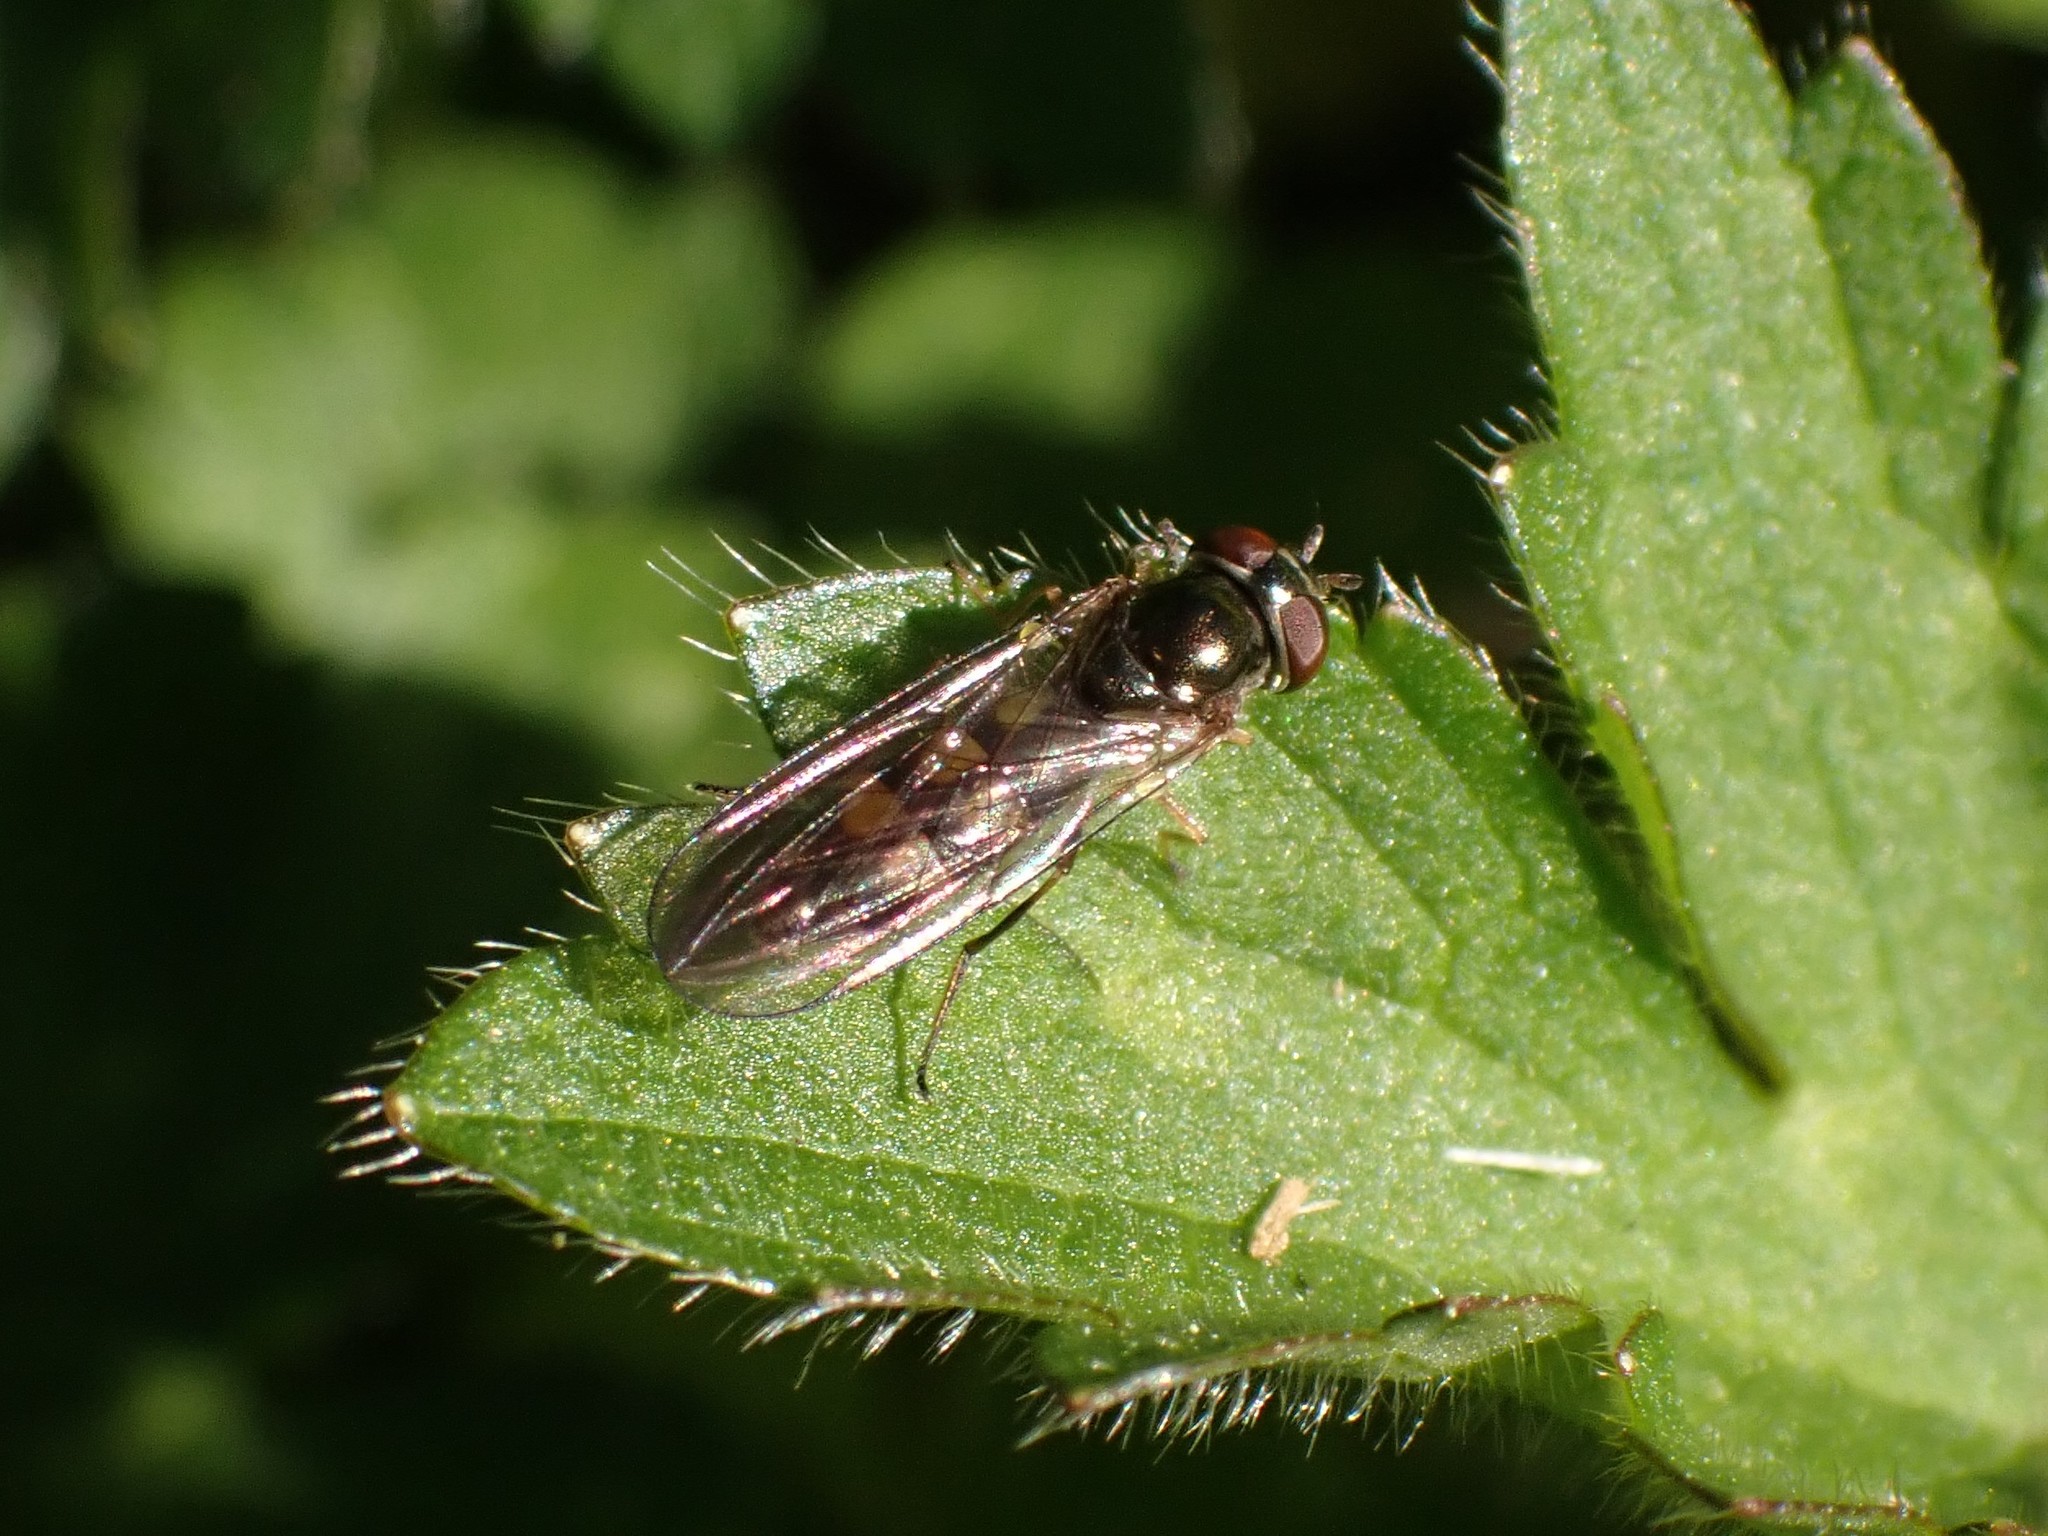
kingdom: Animalia
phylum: Arthropoda
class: Insecta
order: Diptera
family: Syrphidae
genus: Melanostoma
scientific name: Melanostoma mellina
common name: Hover fly
